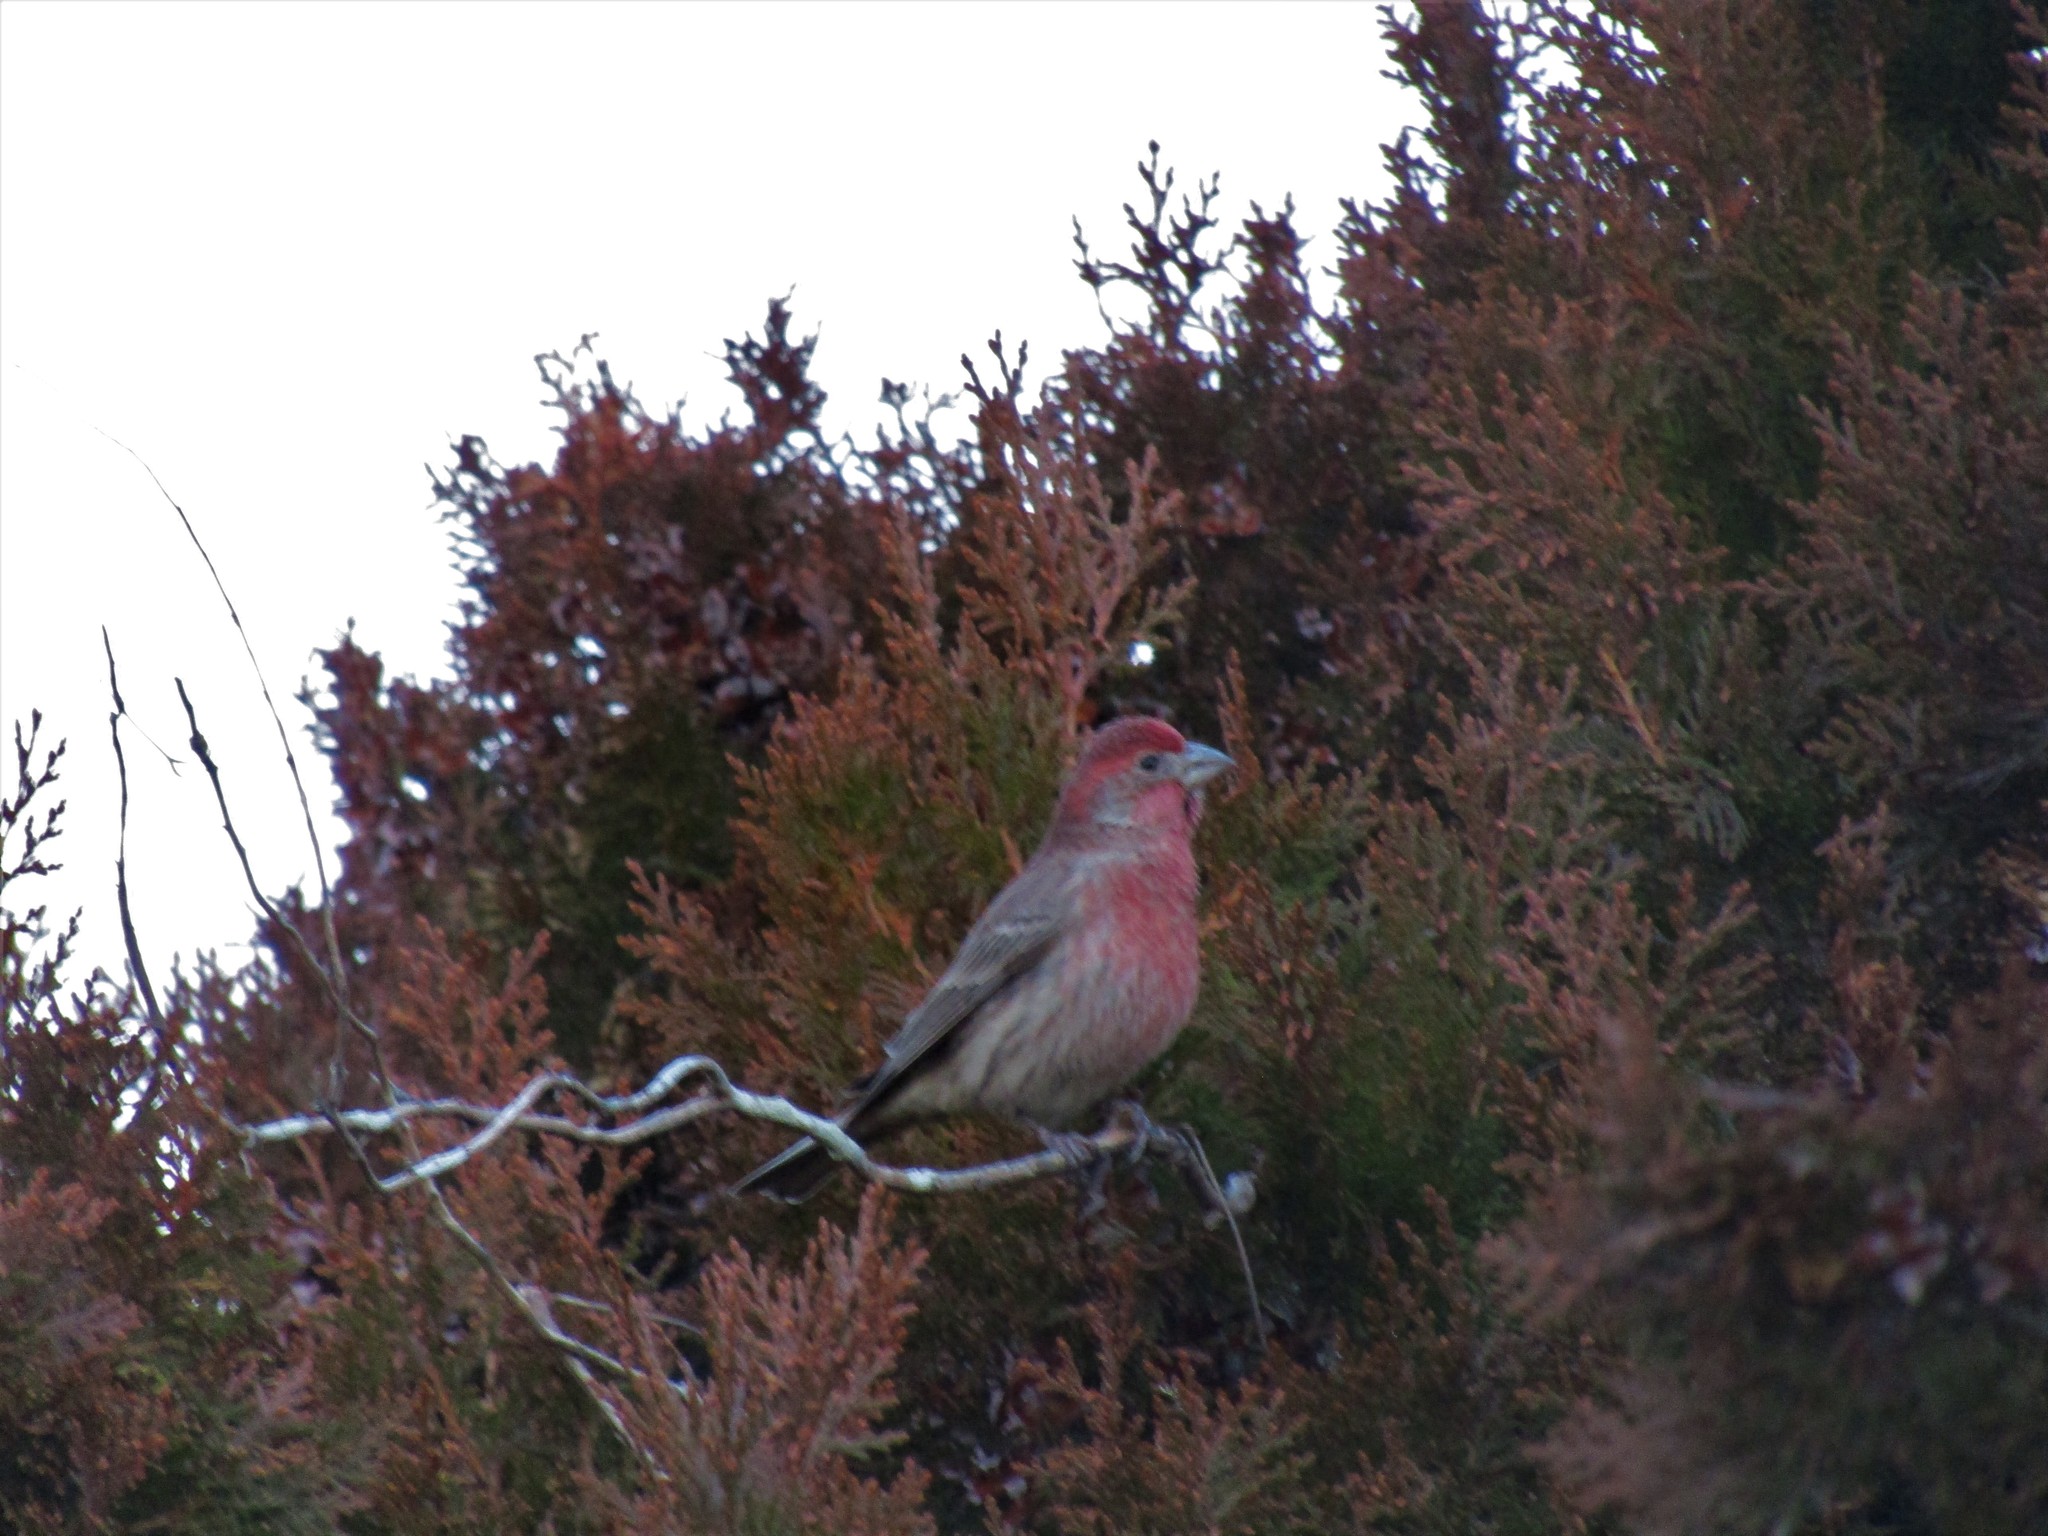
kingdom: Animalia
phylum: Chordata
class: Aves
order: Passeriformes
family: Fringillidae
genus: Haemorhous
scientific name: Haemorhous mexicanus
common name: House finch
